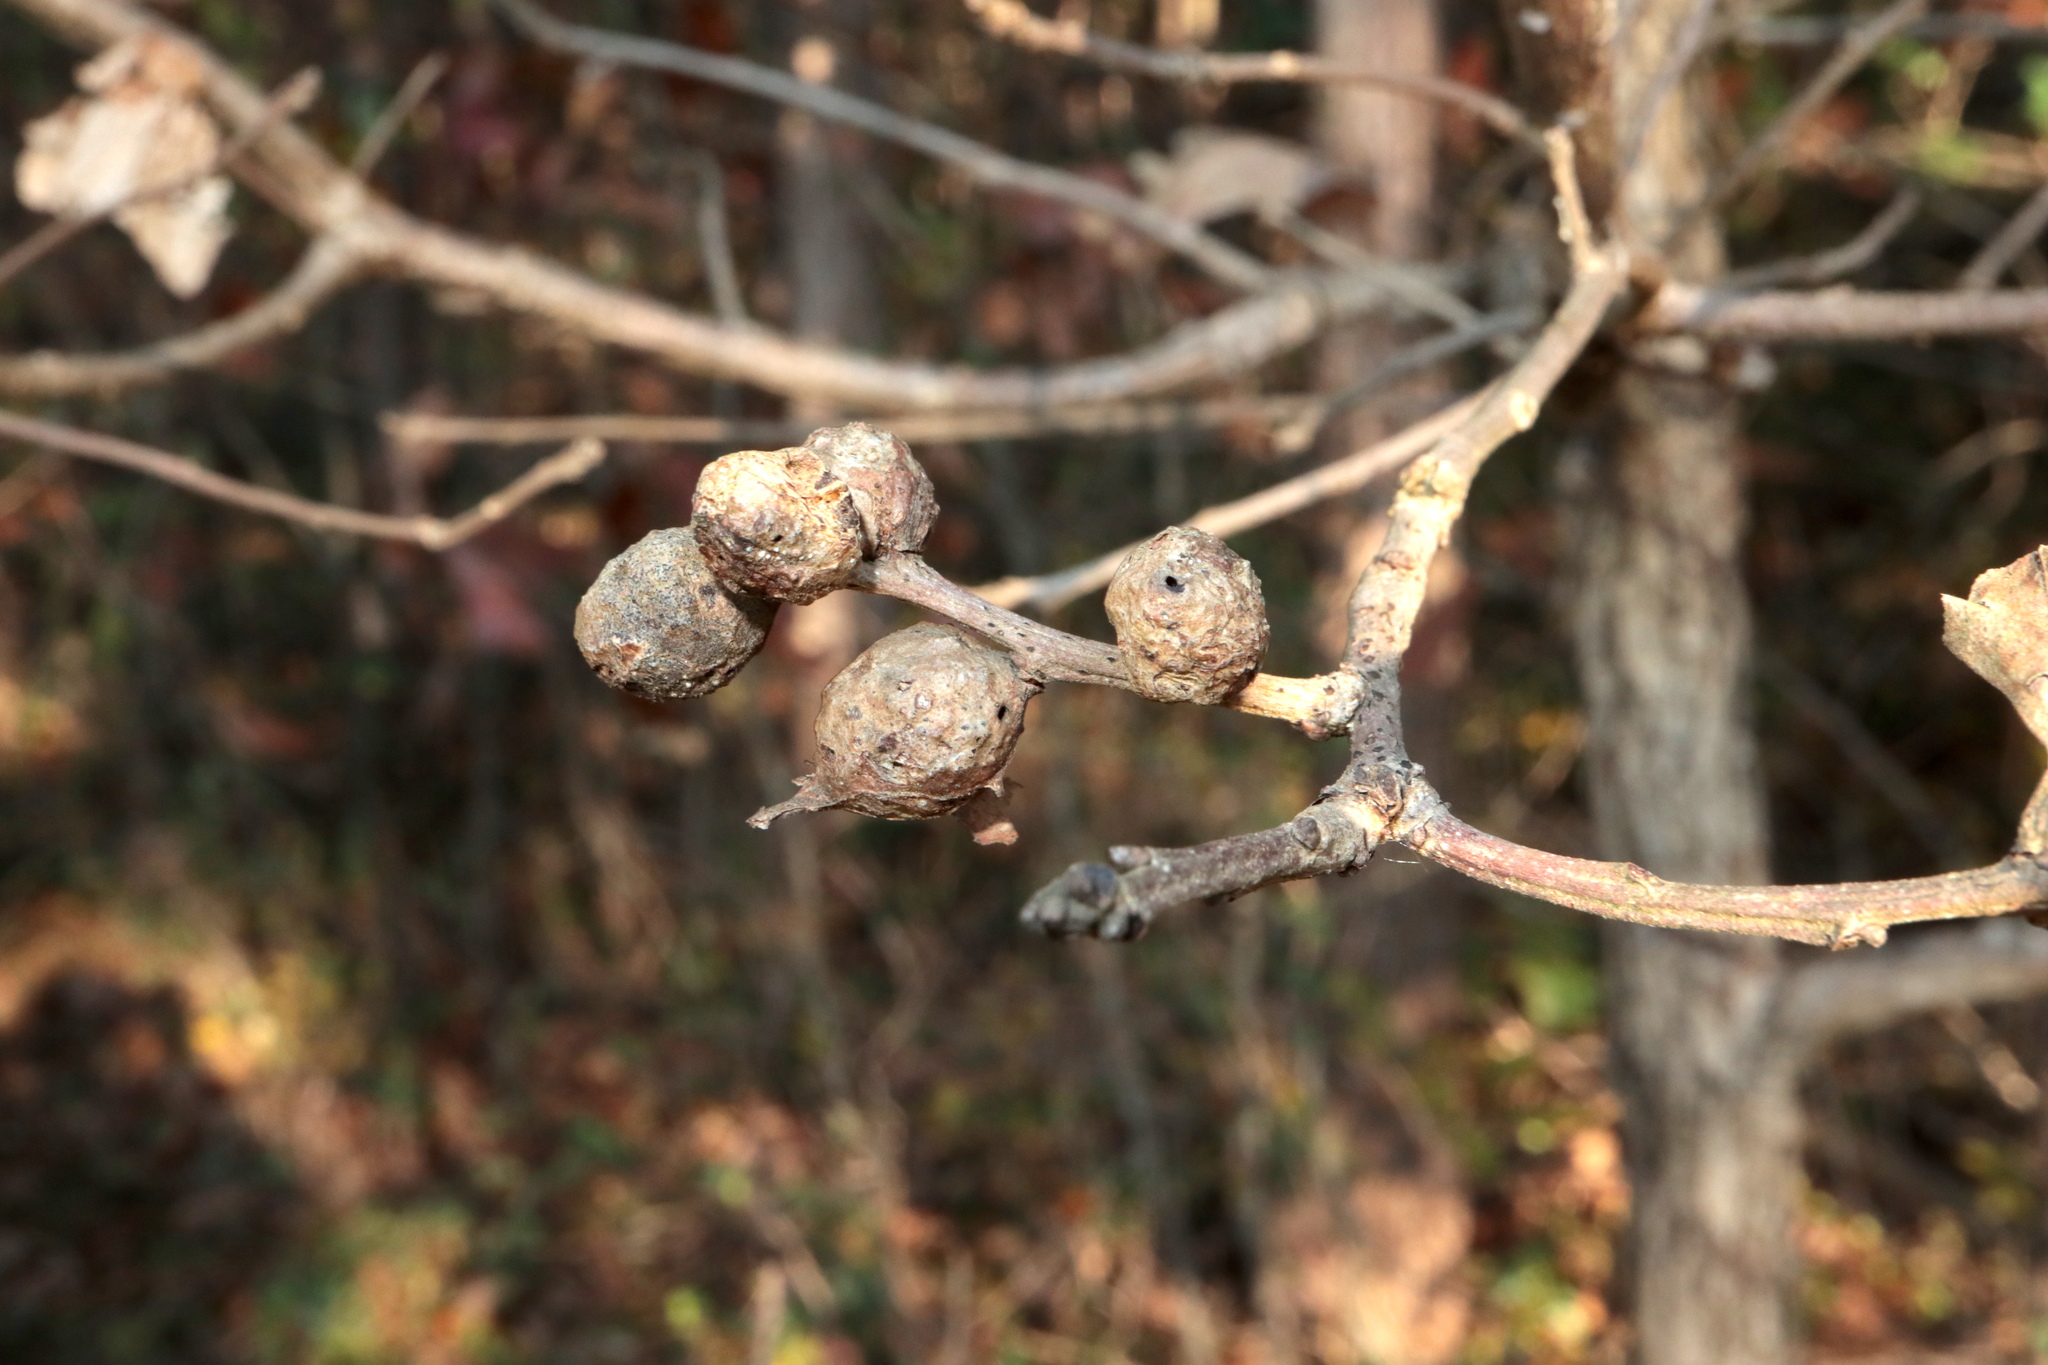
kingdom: Animalia
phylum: Arthropoda
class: Insecta
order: Hymenoptera
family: Cynipidae
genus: Andricus
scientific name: Andricus
